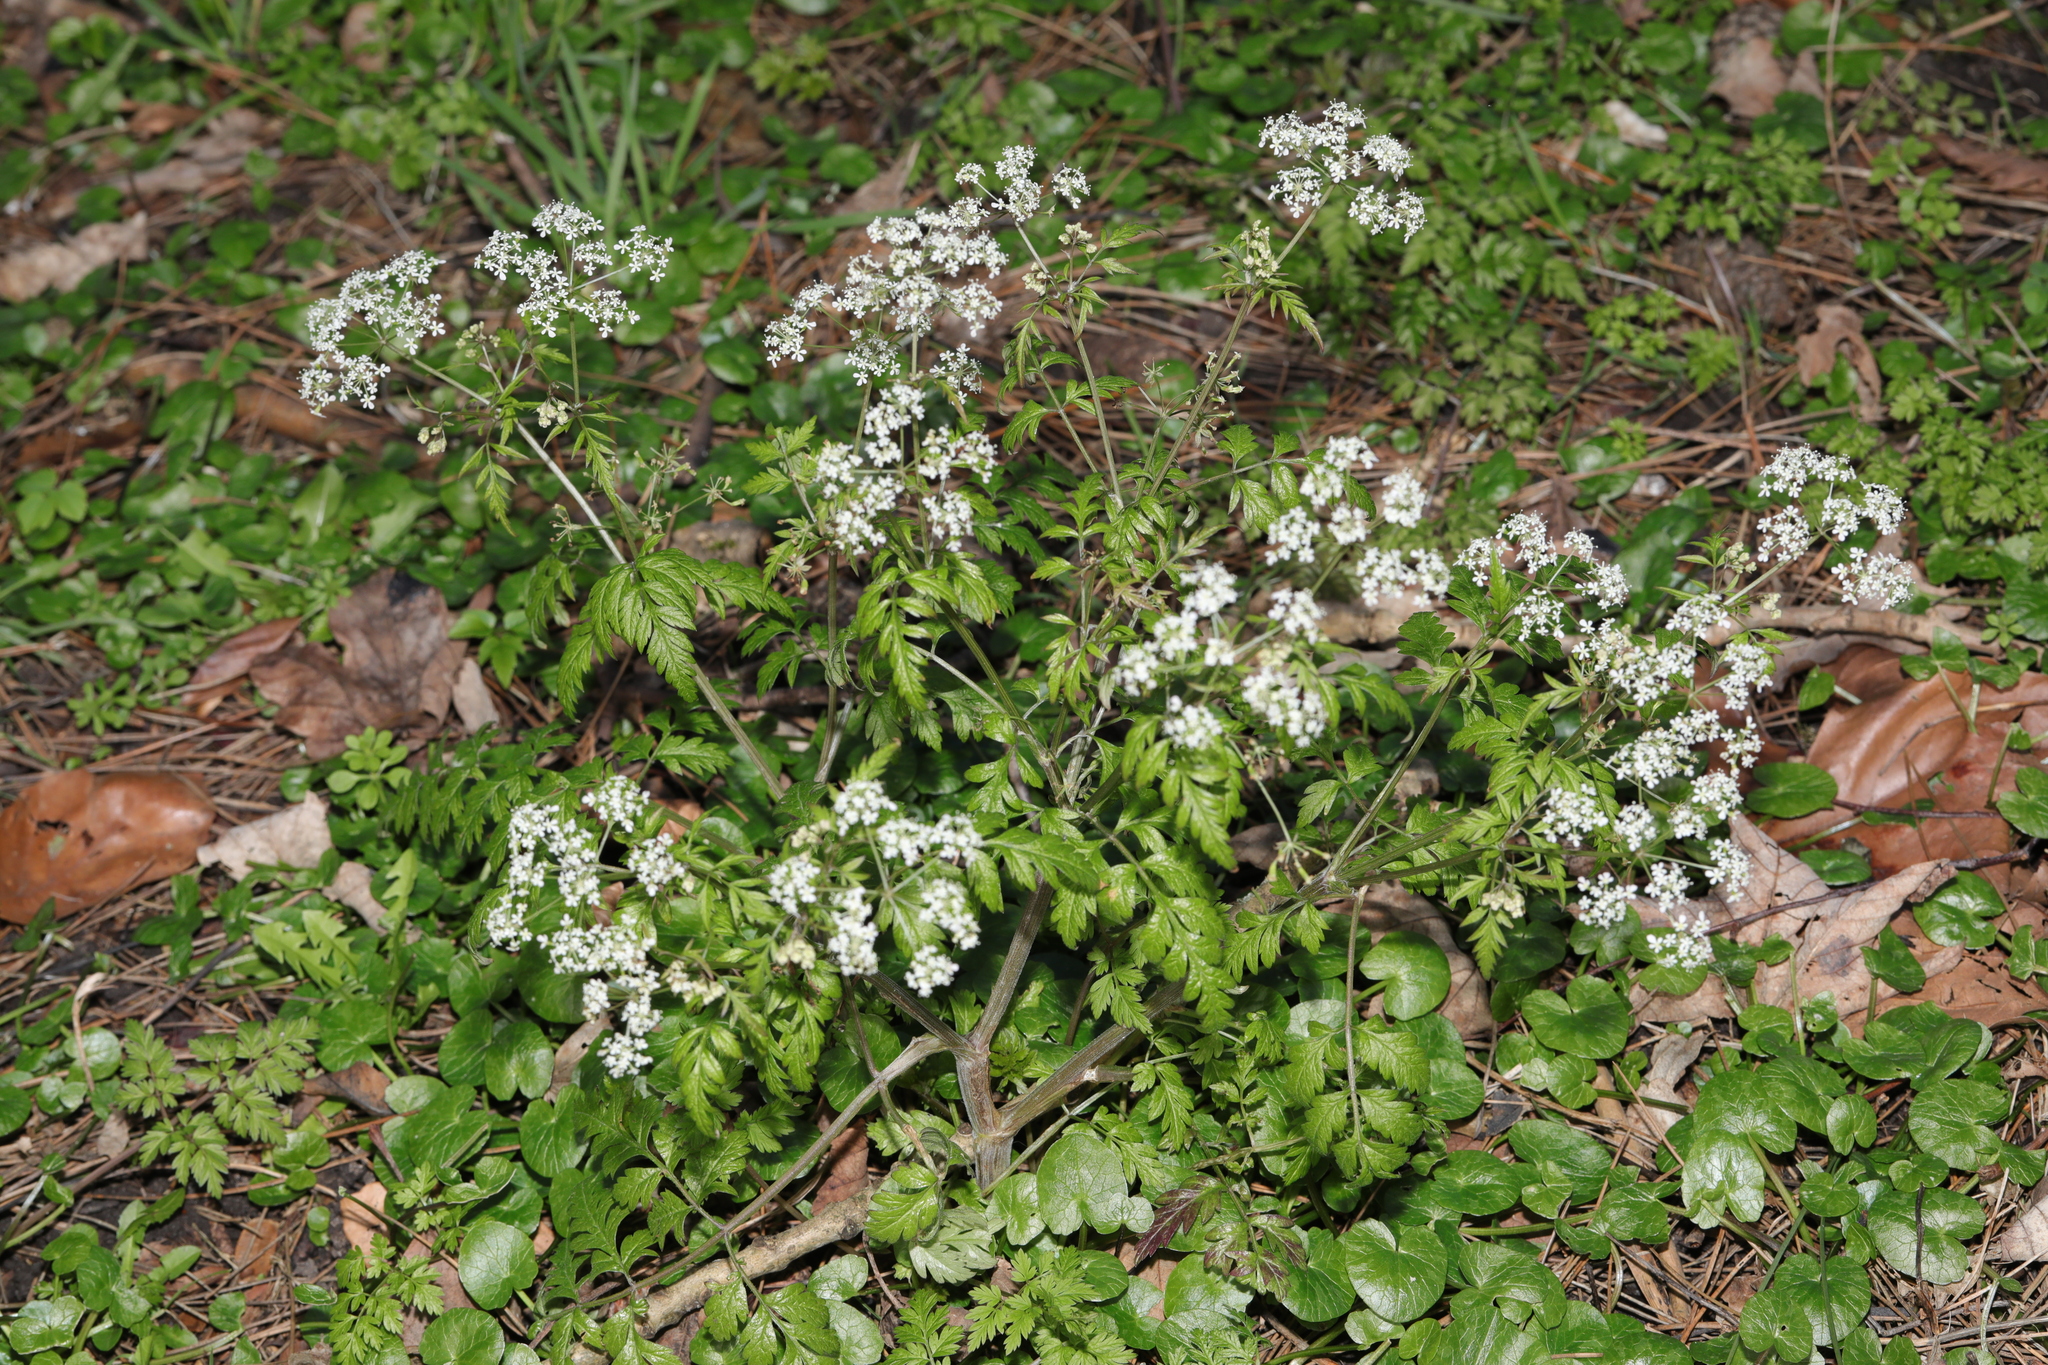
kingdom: Plantae
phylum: Tracheophyta
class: Magnoliopsida
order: Apiales
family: Apiaceae
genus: Anthriscus
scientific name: Anthriscus sylvestris
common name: Cow parsley
